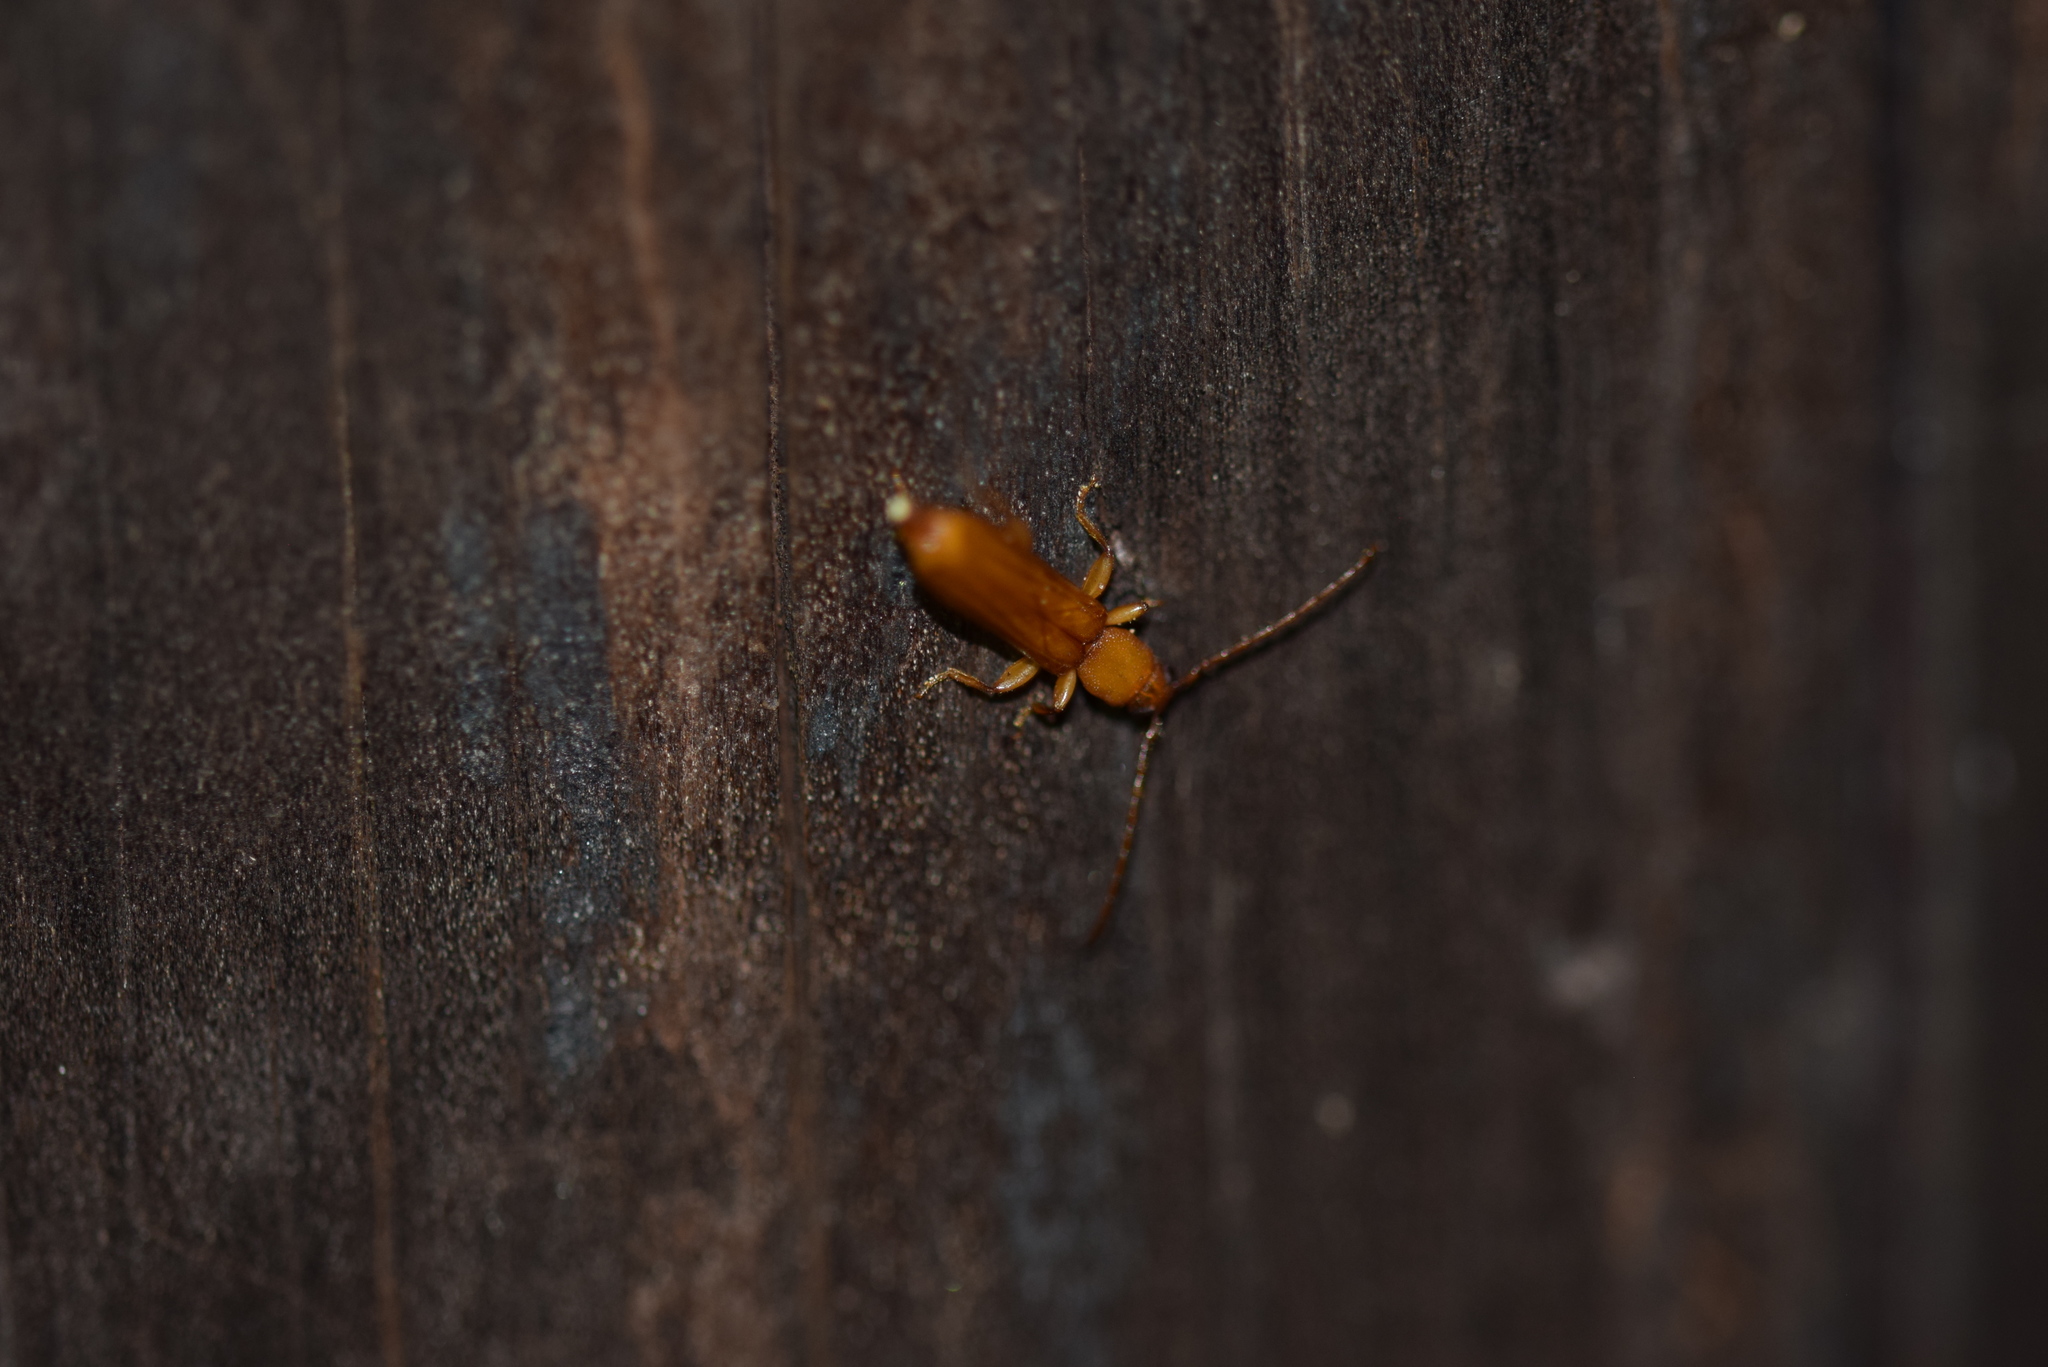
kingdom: Animalia
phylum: Arthropoda
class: Insecta
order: Coleoptera
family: Cerambycidae
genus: Smodicum
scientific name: Smodicum cucujiforme
